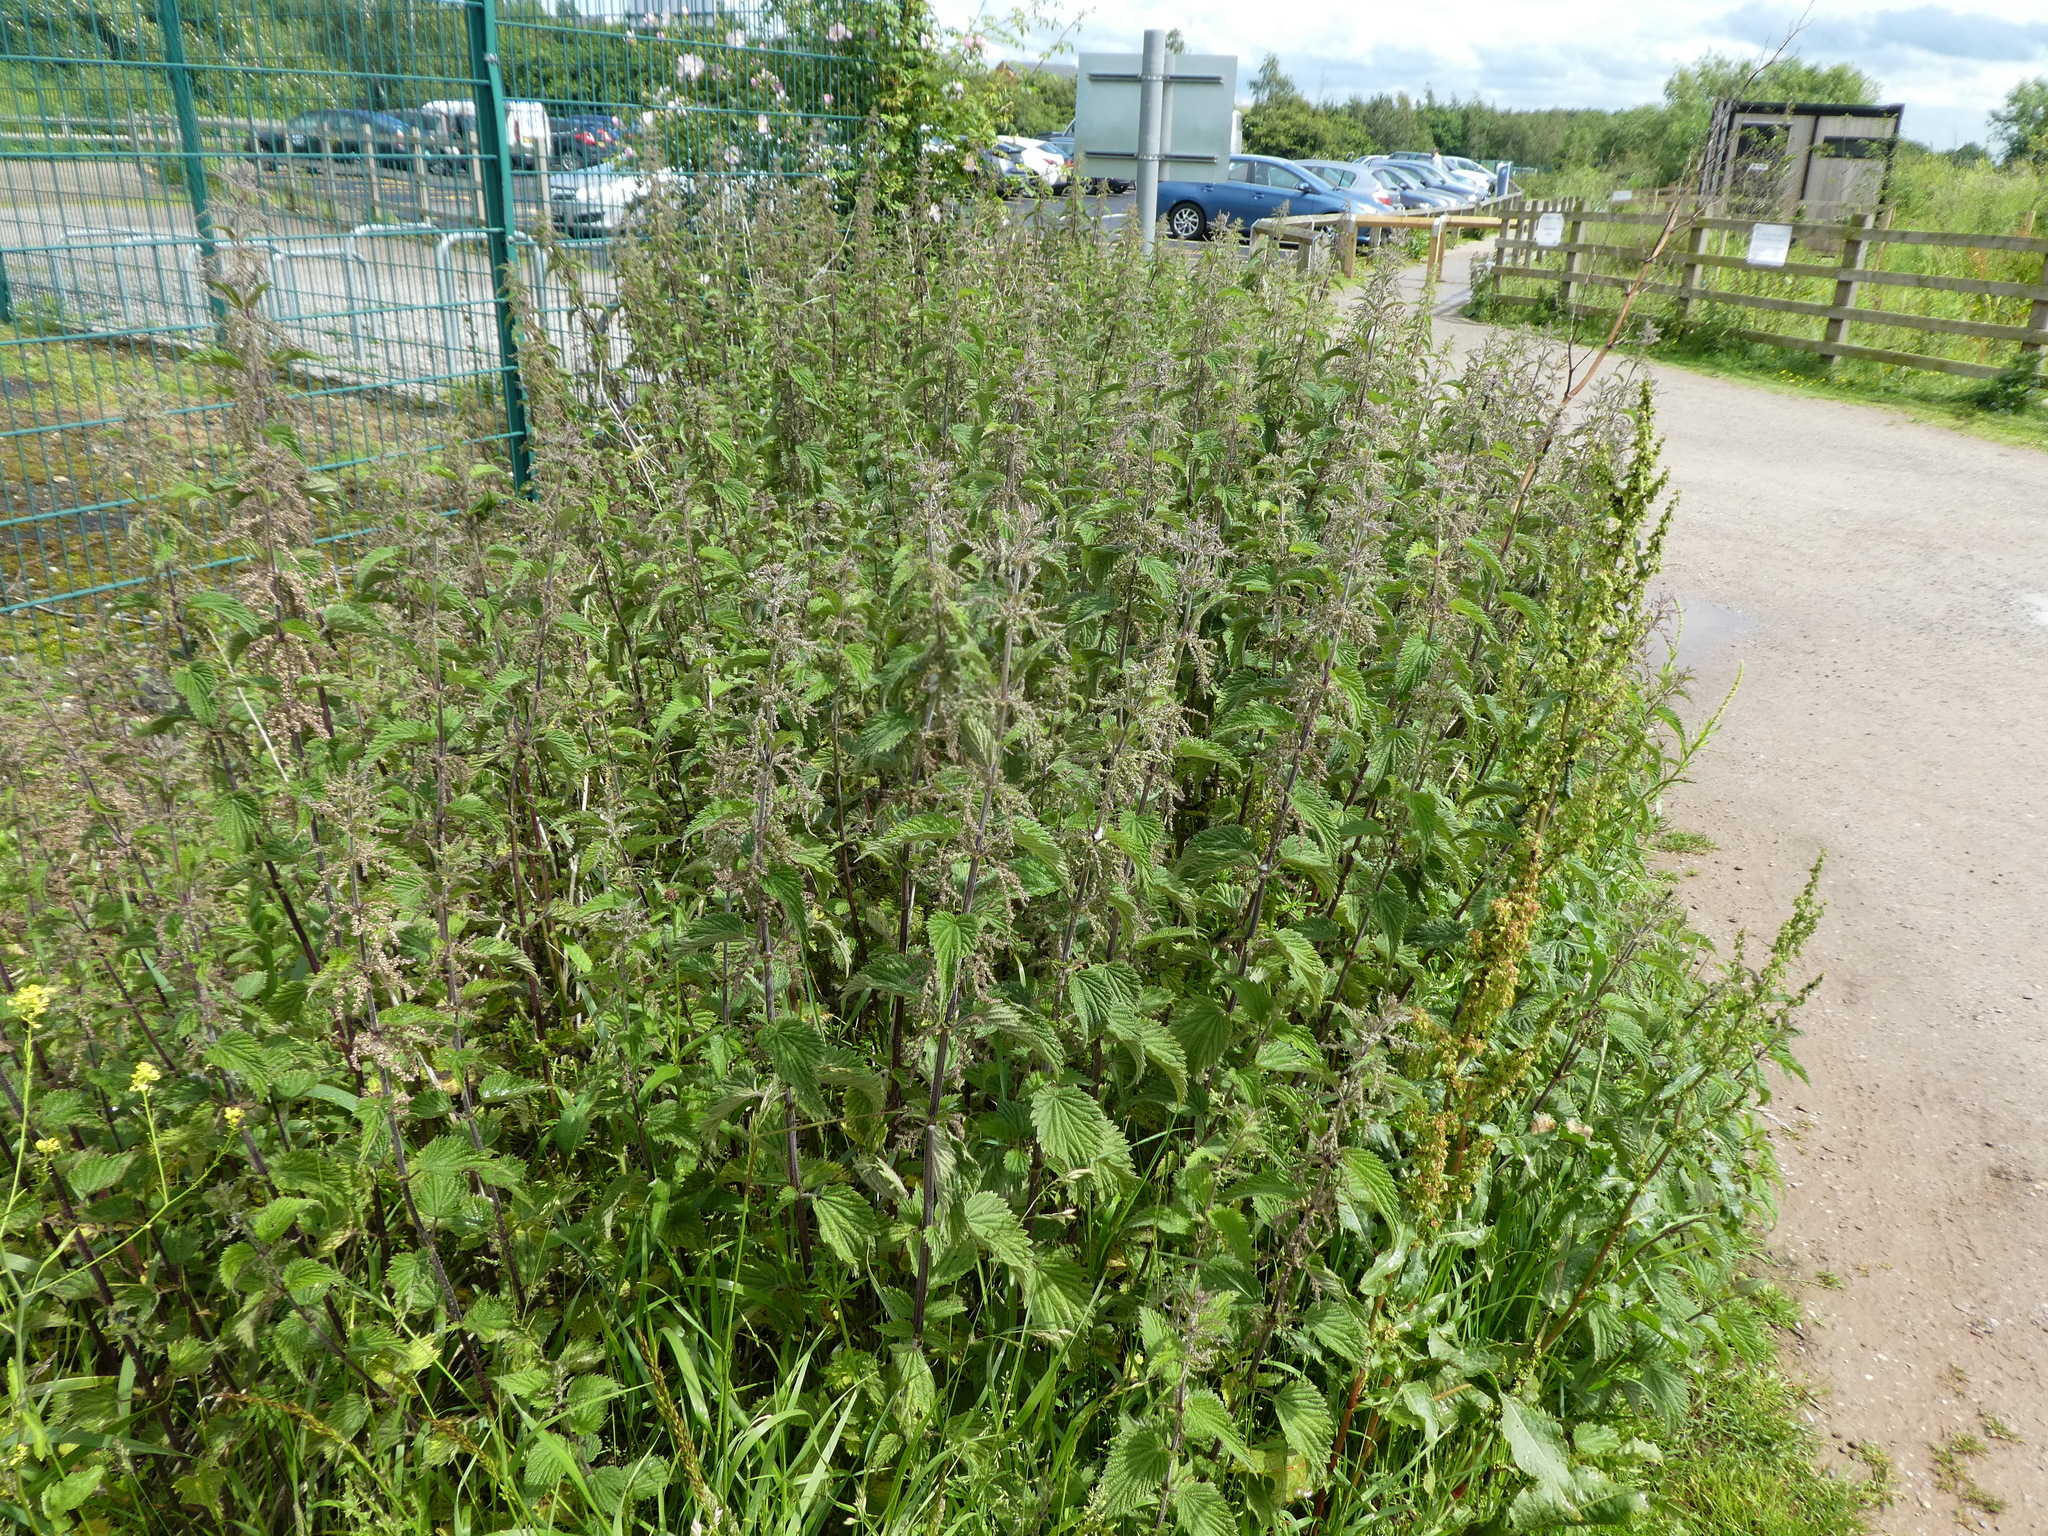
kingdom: Plantae
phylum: Tracheophyta
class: Magnoliopsida
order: Rosales
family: Urticaceae
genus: Urtica
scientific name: Urtica dioica
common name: Common nettle
